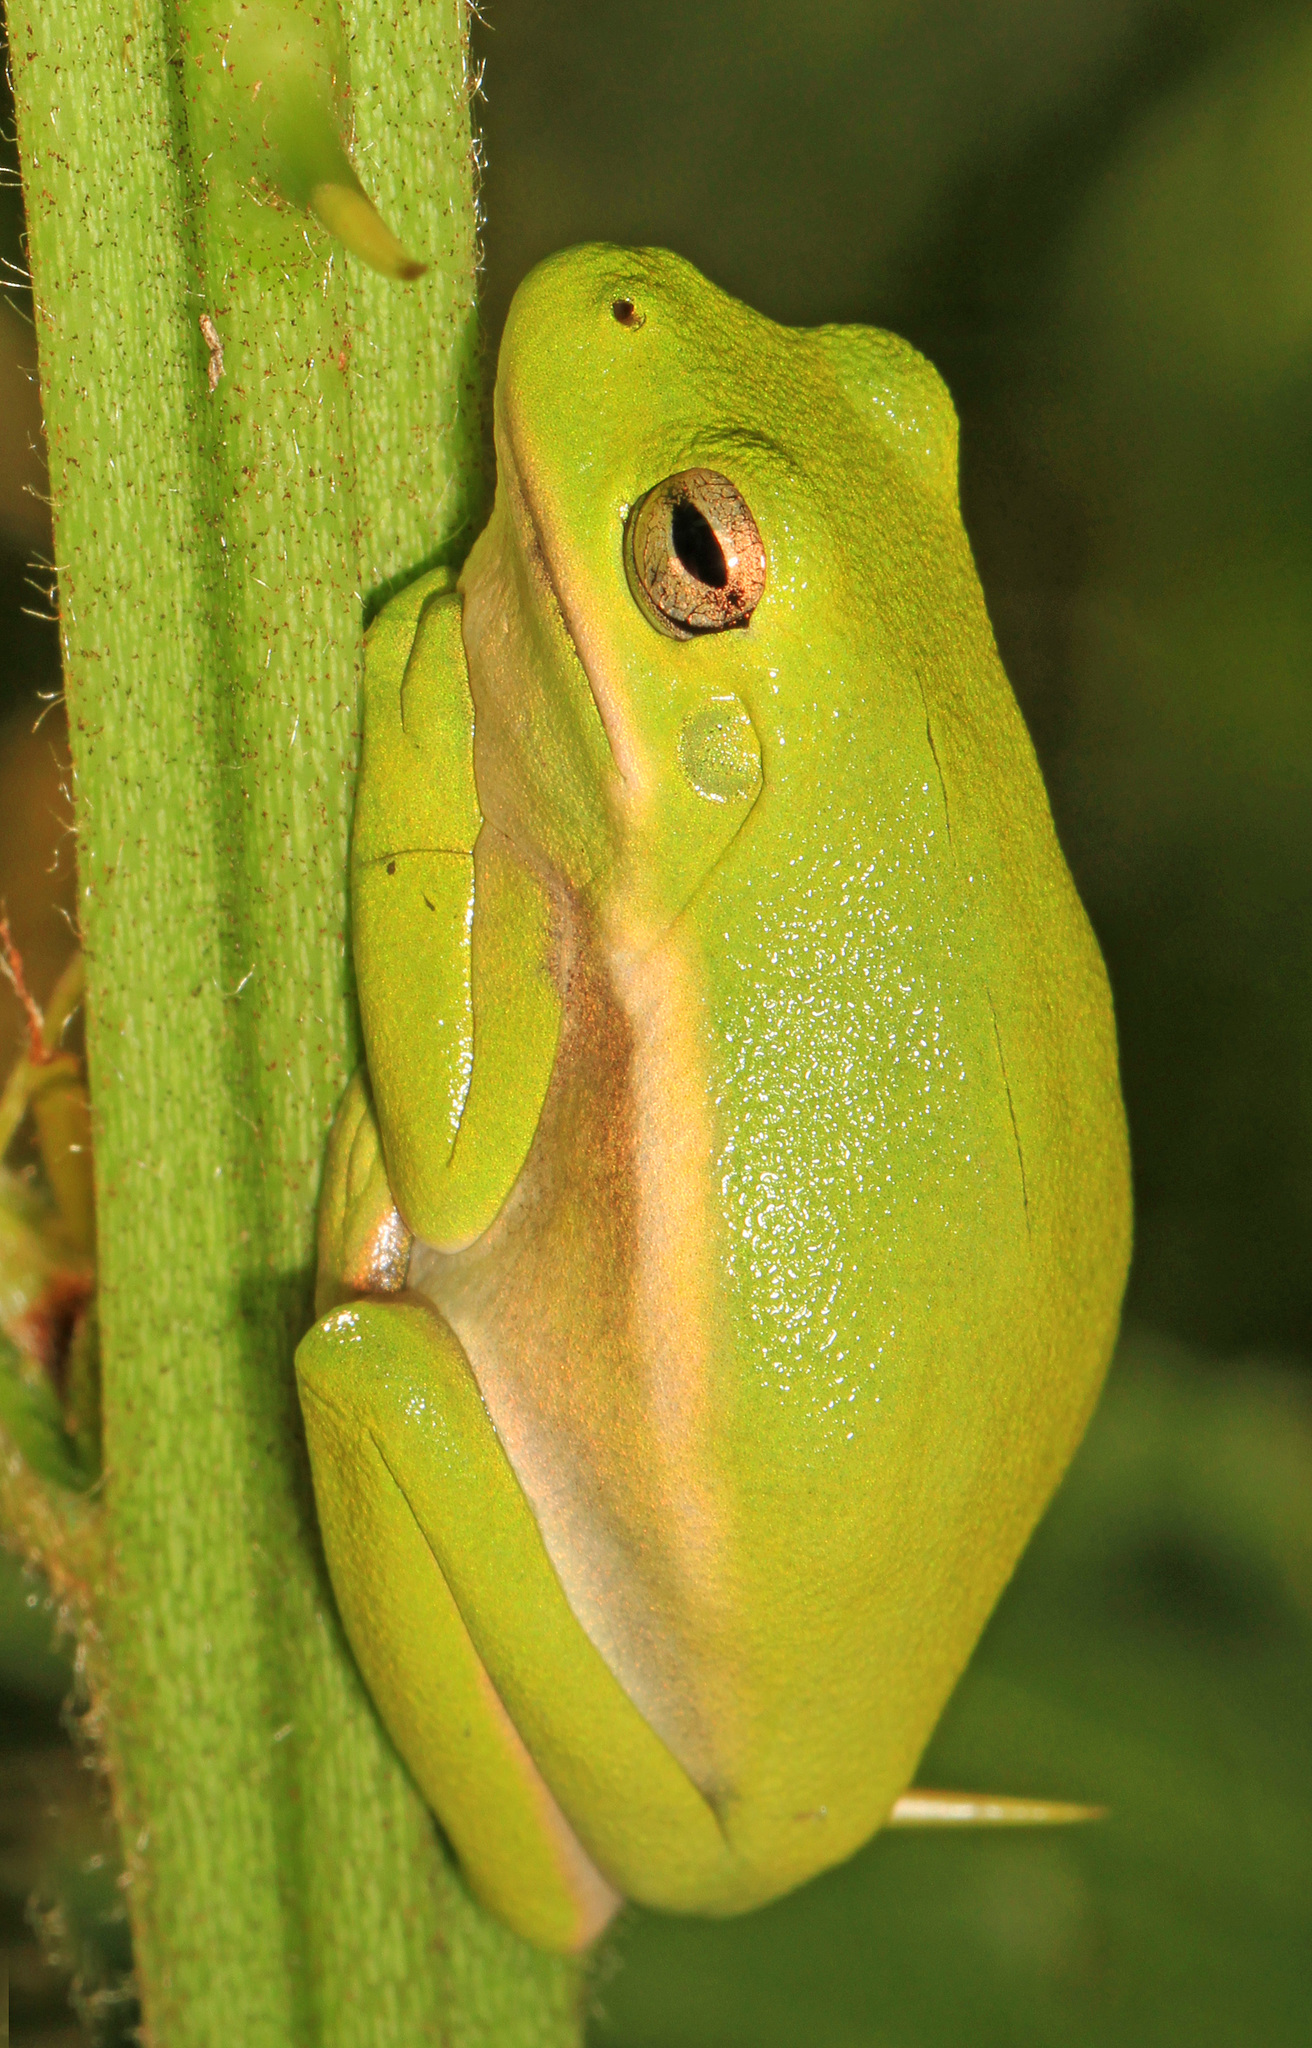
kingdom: Animalia
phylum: Chordata
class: Amphibia
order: Anura
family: Hylidae
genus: Dryophytes
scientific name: Dryophytes cinereus
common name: Green treefrog
